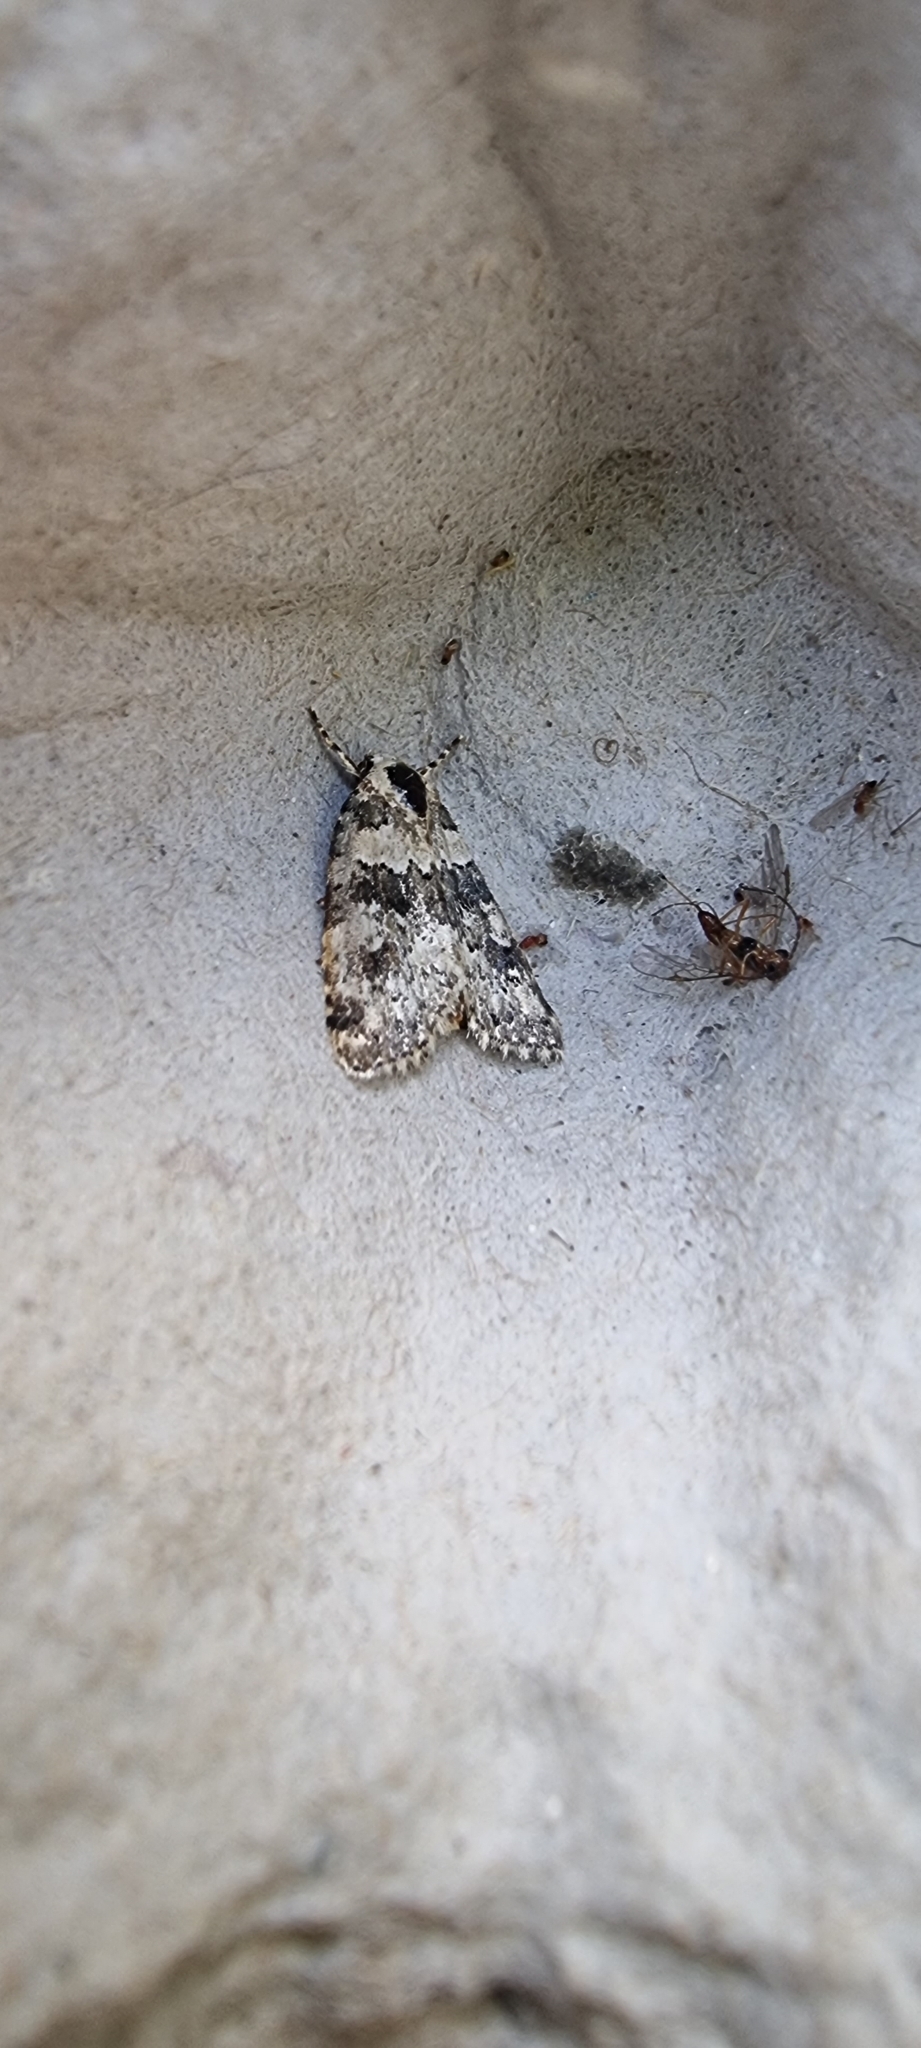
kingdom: Animalia
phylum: Arthropoda
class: Insecta
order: Lepidoptera
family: Noctuidae
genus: Bryophila
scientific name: Bryophila domestica
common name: Marbled beauty
